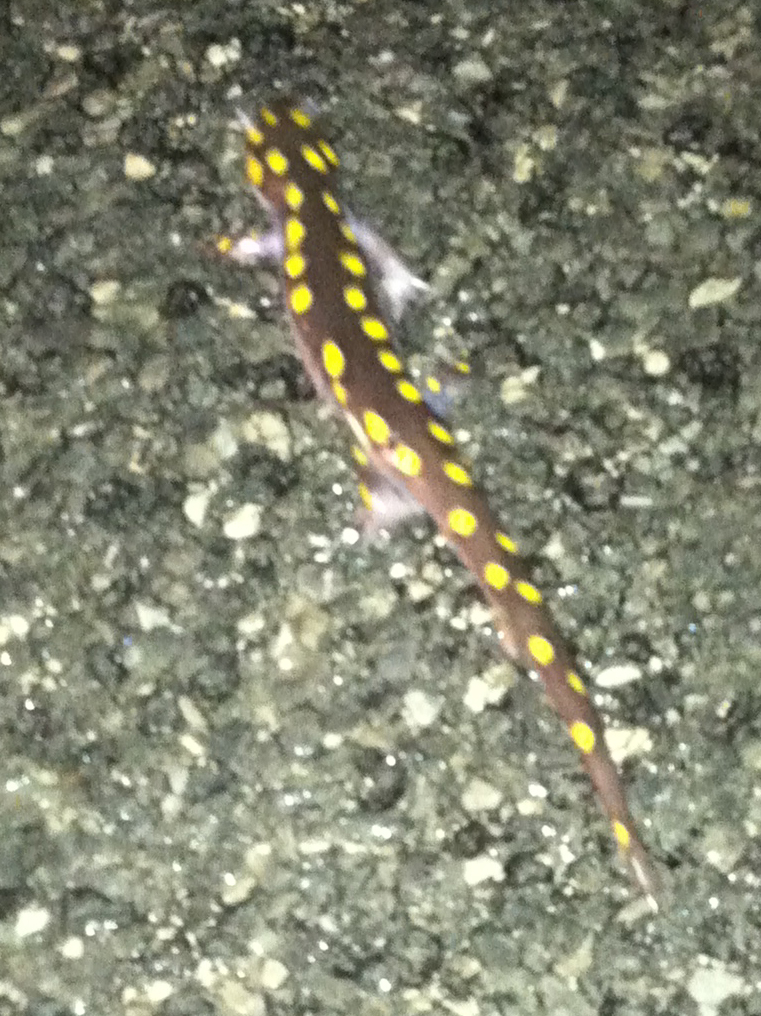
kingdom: Animalia
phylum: Chordata
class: Amphibia
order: Caudata
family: Ambystomatidae
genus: Ambystoma
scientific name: Ambystoma maculatum
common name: Spotted salamander
